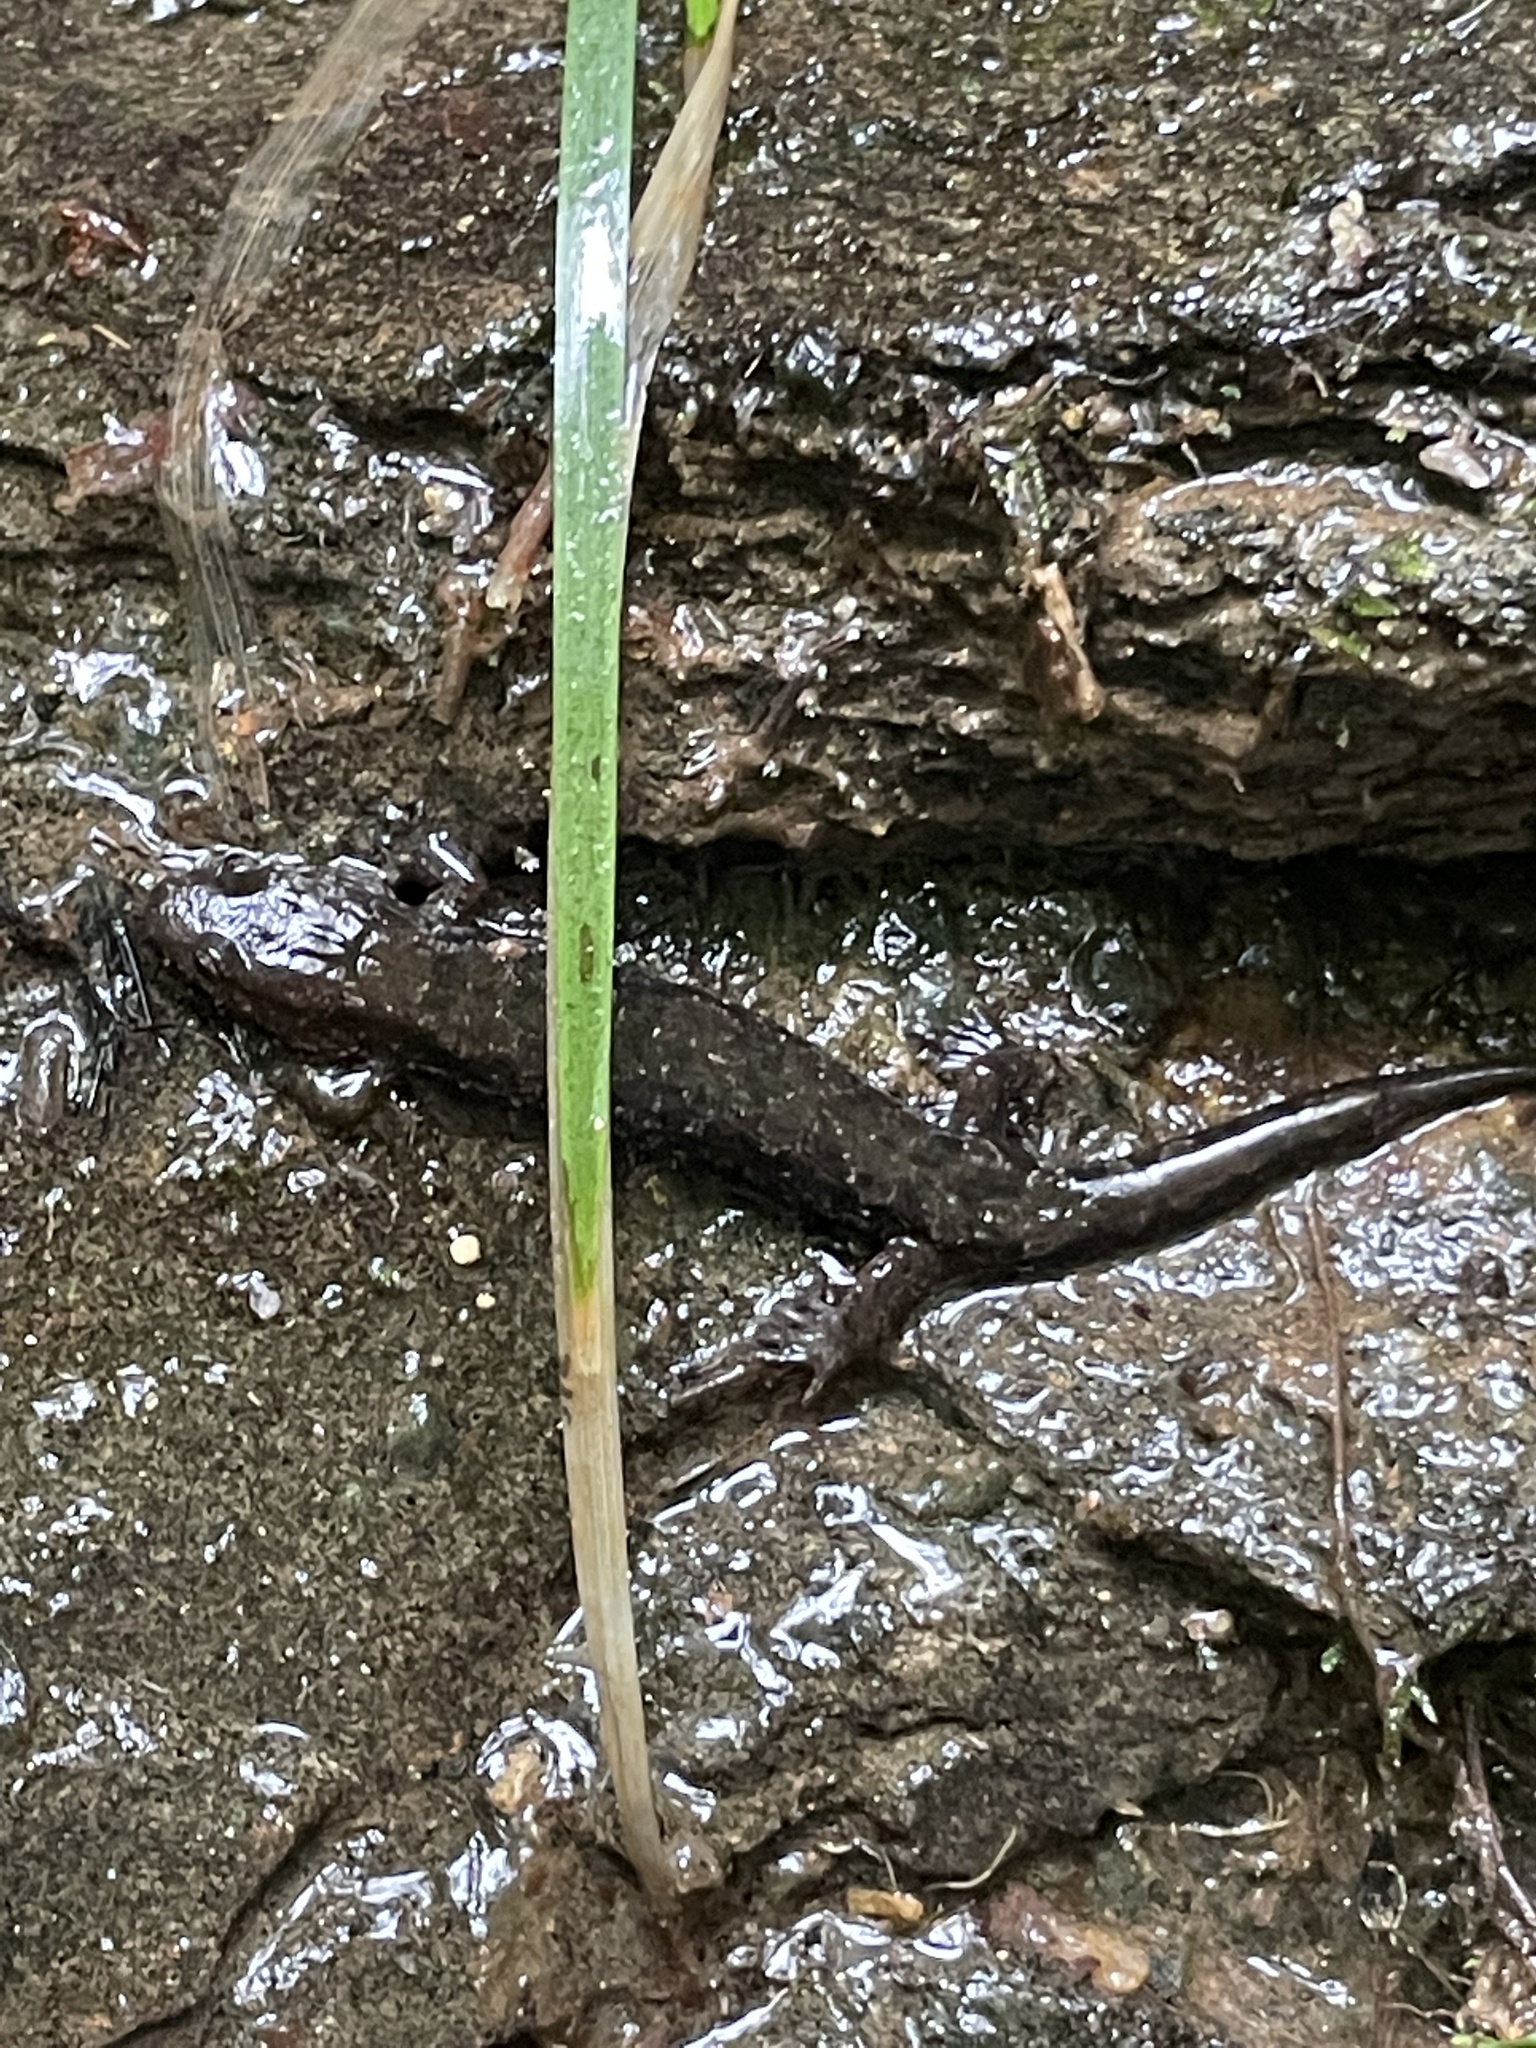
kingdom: Animalia
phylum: Chordata
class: Amphibia
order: Caudata
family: Plethodontidae
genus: Desmognathus
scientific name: Desmognathus
